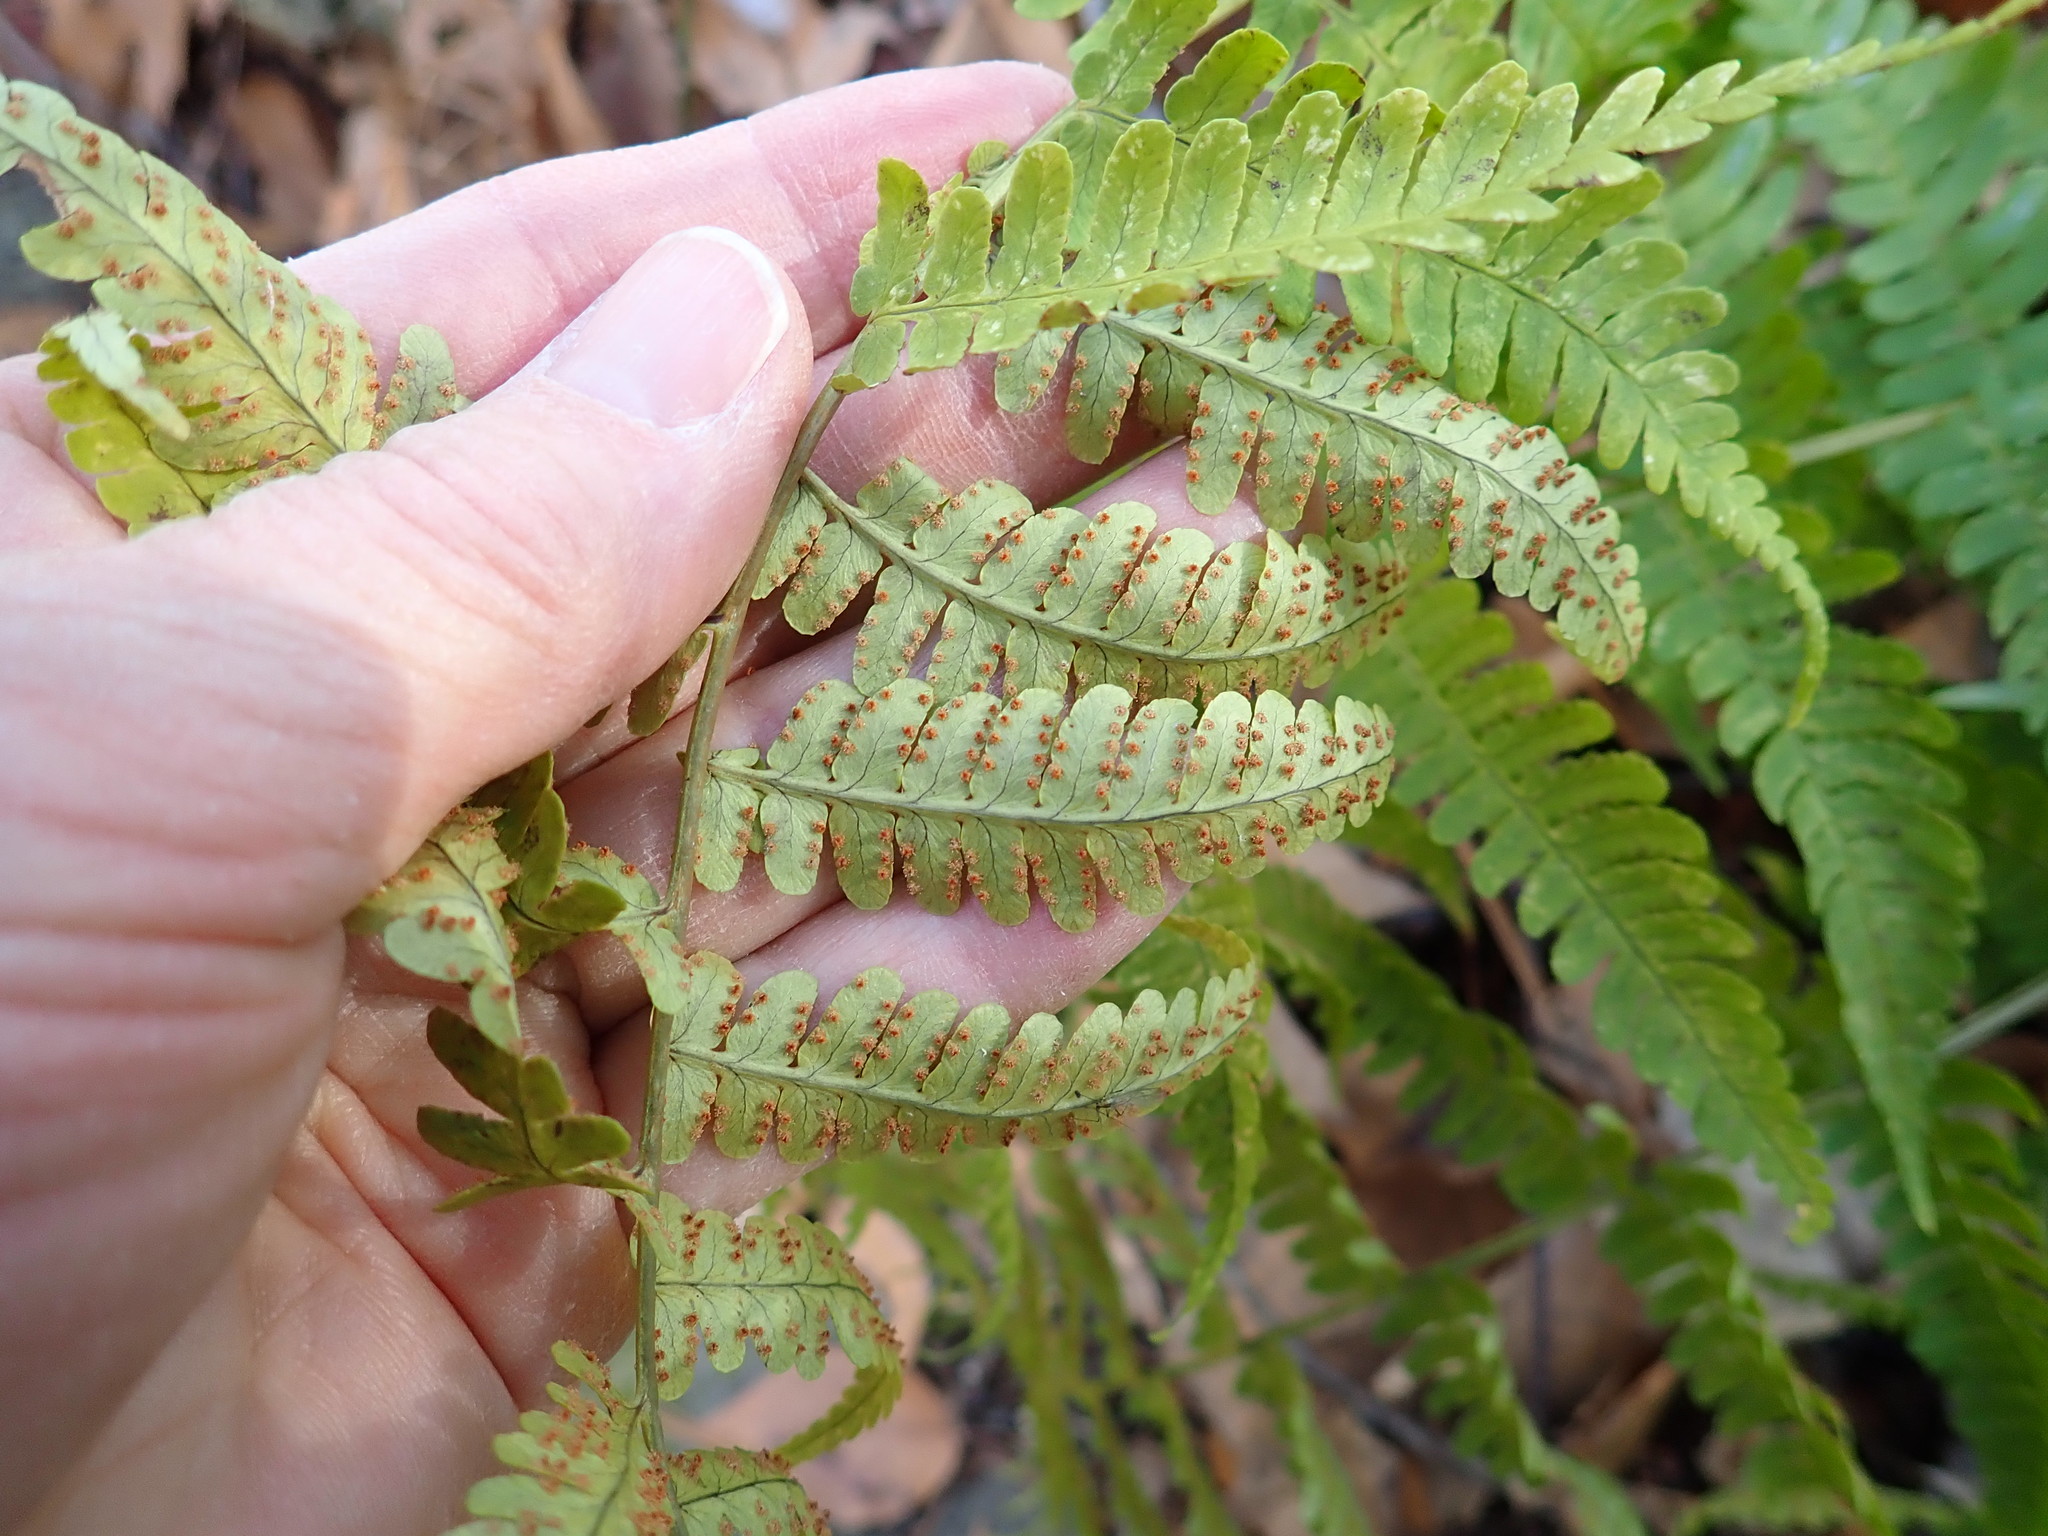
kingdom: Plantae
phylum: Tracheophyta
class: Polypodiopsida
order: Polypodiales
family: Dryopteridaceae
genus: Dryopteris
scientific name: Dryopteris marginalis
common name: Marginal wood fern
